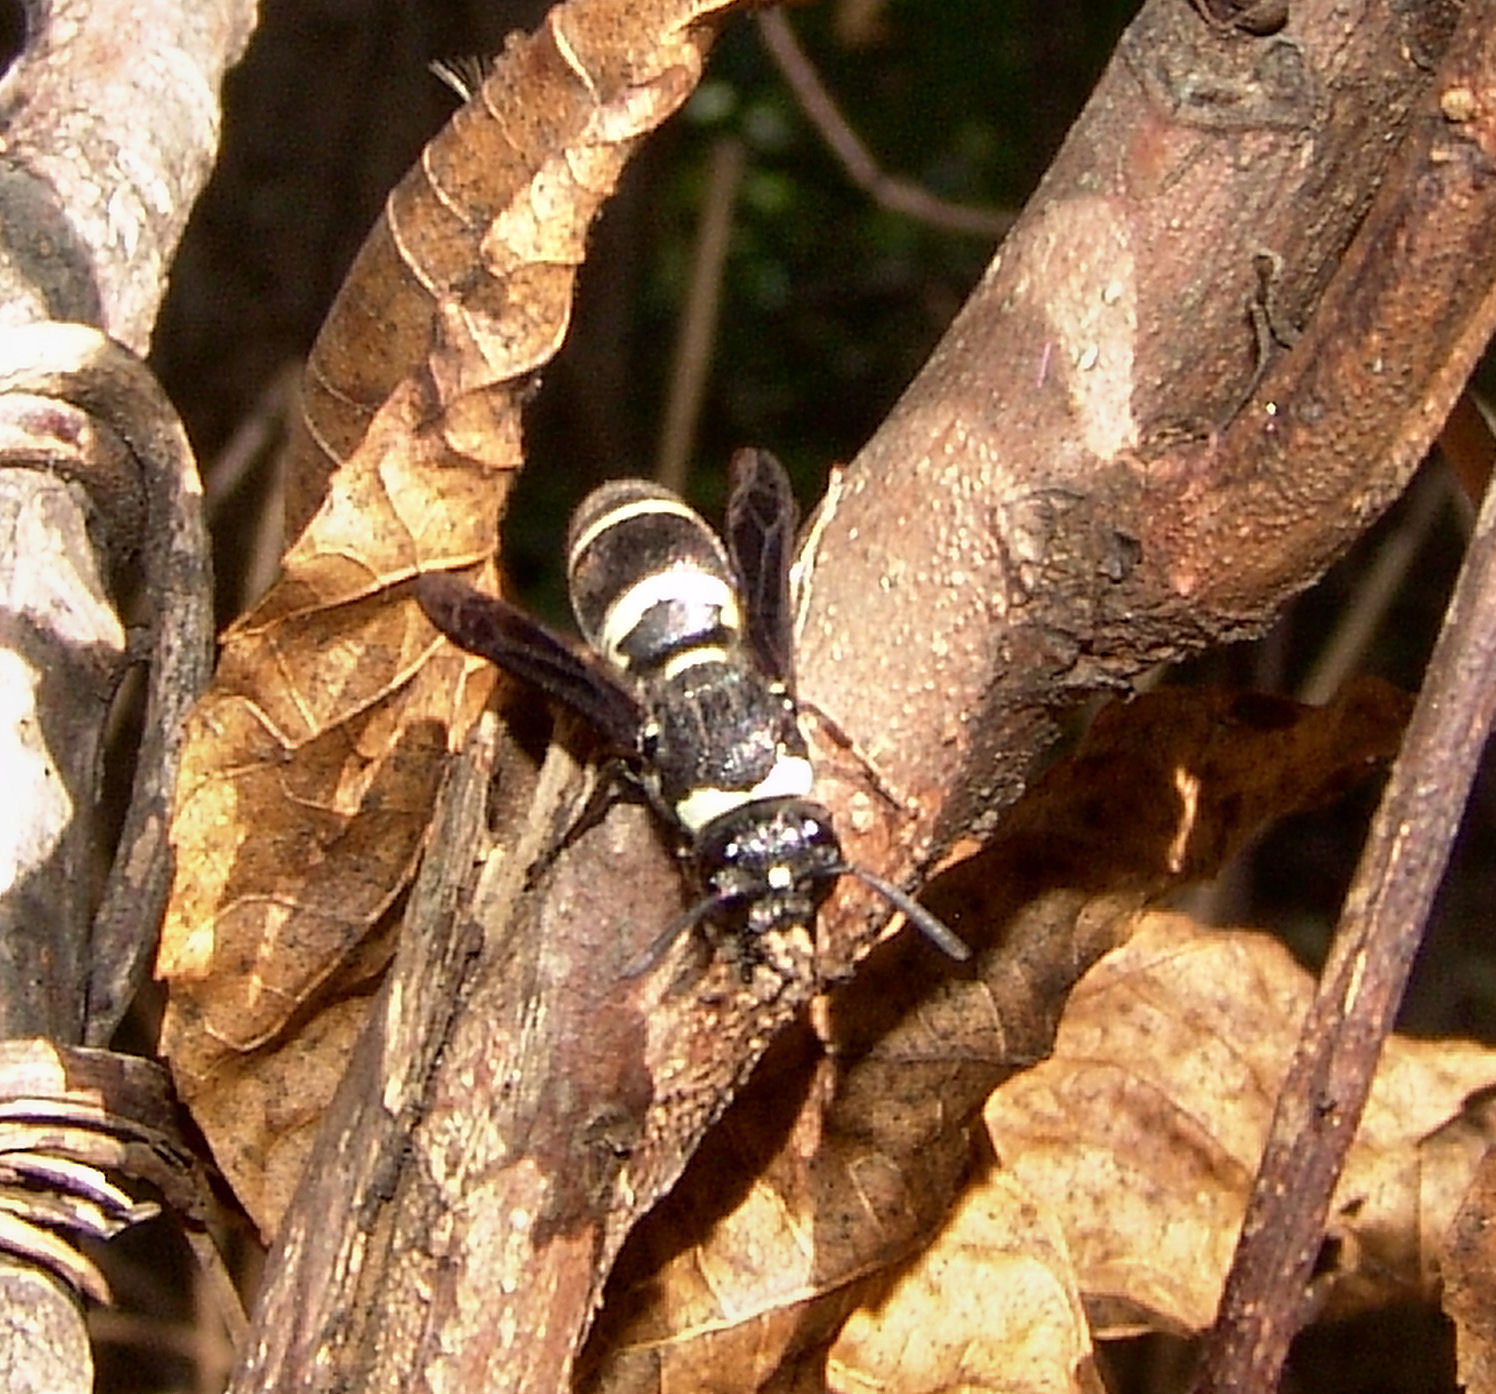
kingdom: Animalia
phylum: Arthropoda
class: Insecta
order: Hymenoptera
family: Eumenidae
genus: Euodynerus
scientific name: Euodynerus megaera
